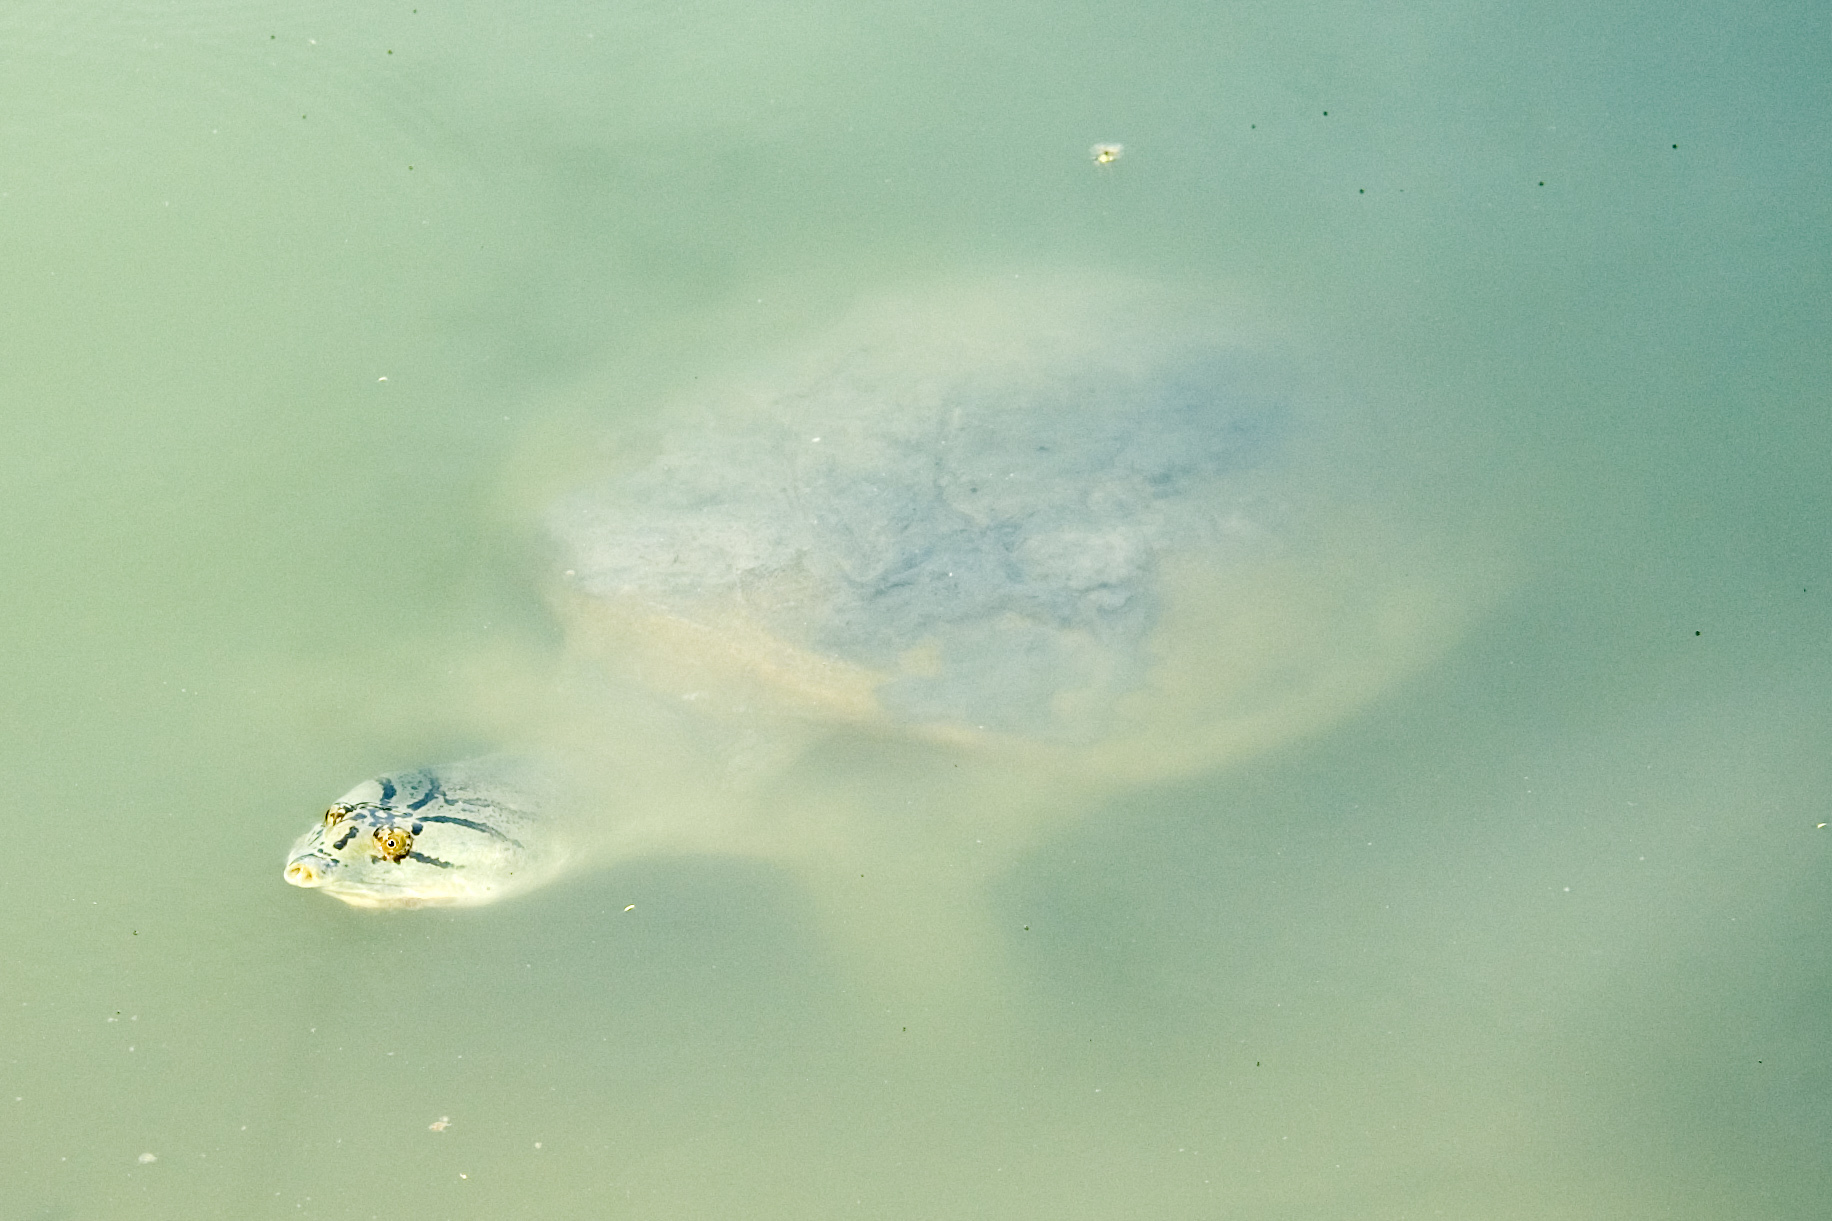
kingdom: Animalia
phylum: Chordata
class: Testudines
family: Trionychidae
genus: Nilssonia
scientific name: Nilssonia gangetica
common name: Indian softshell turtle
